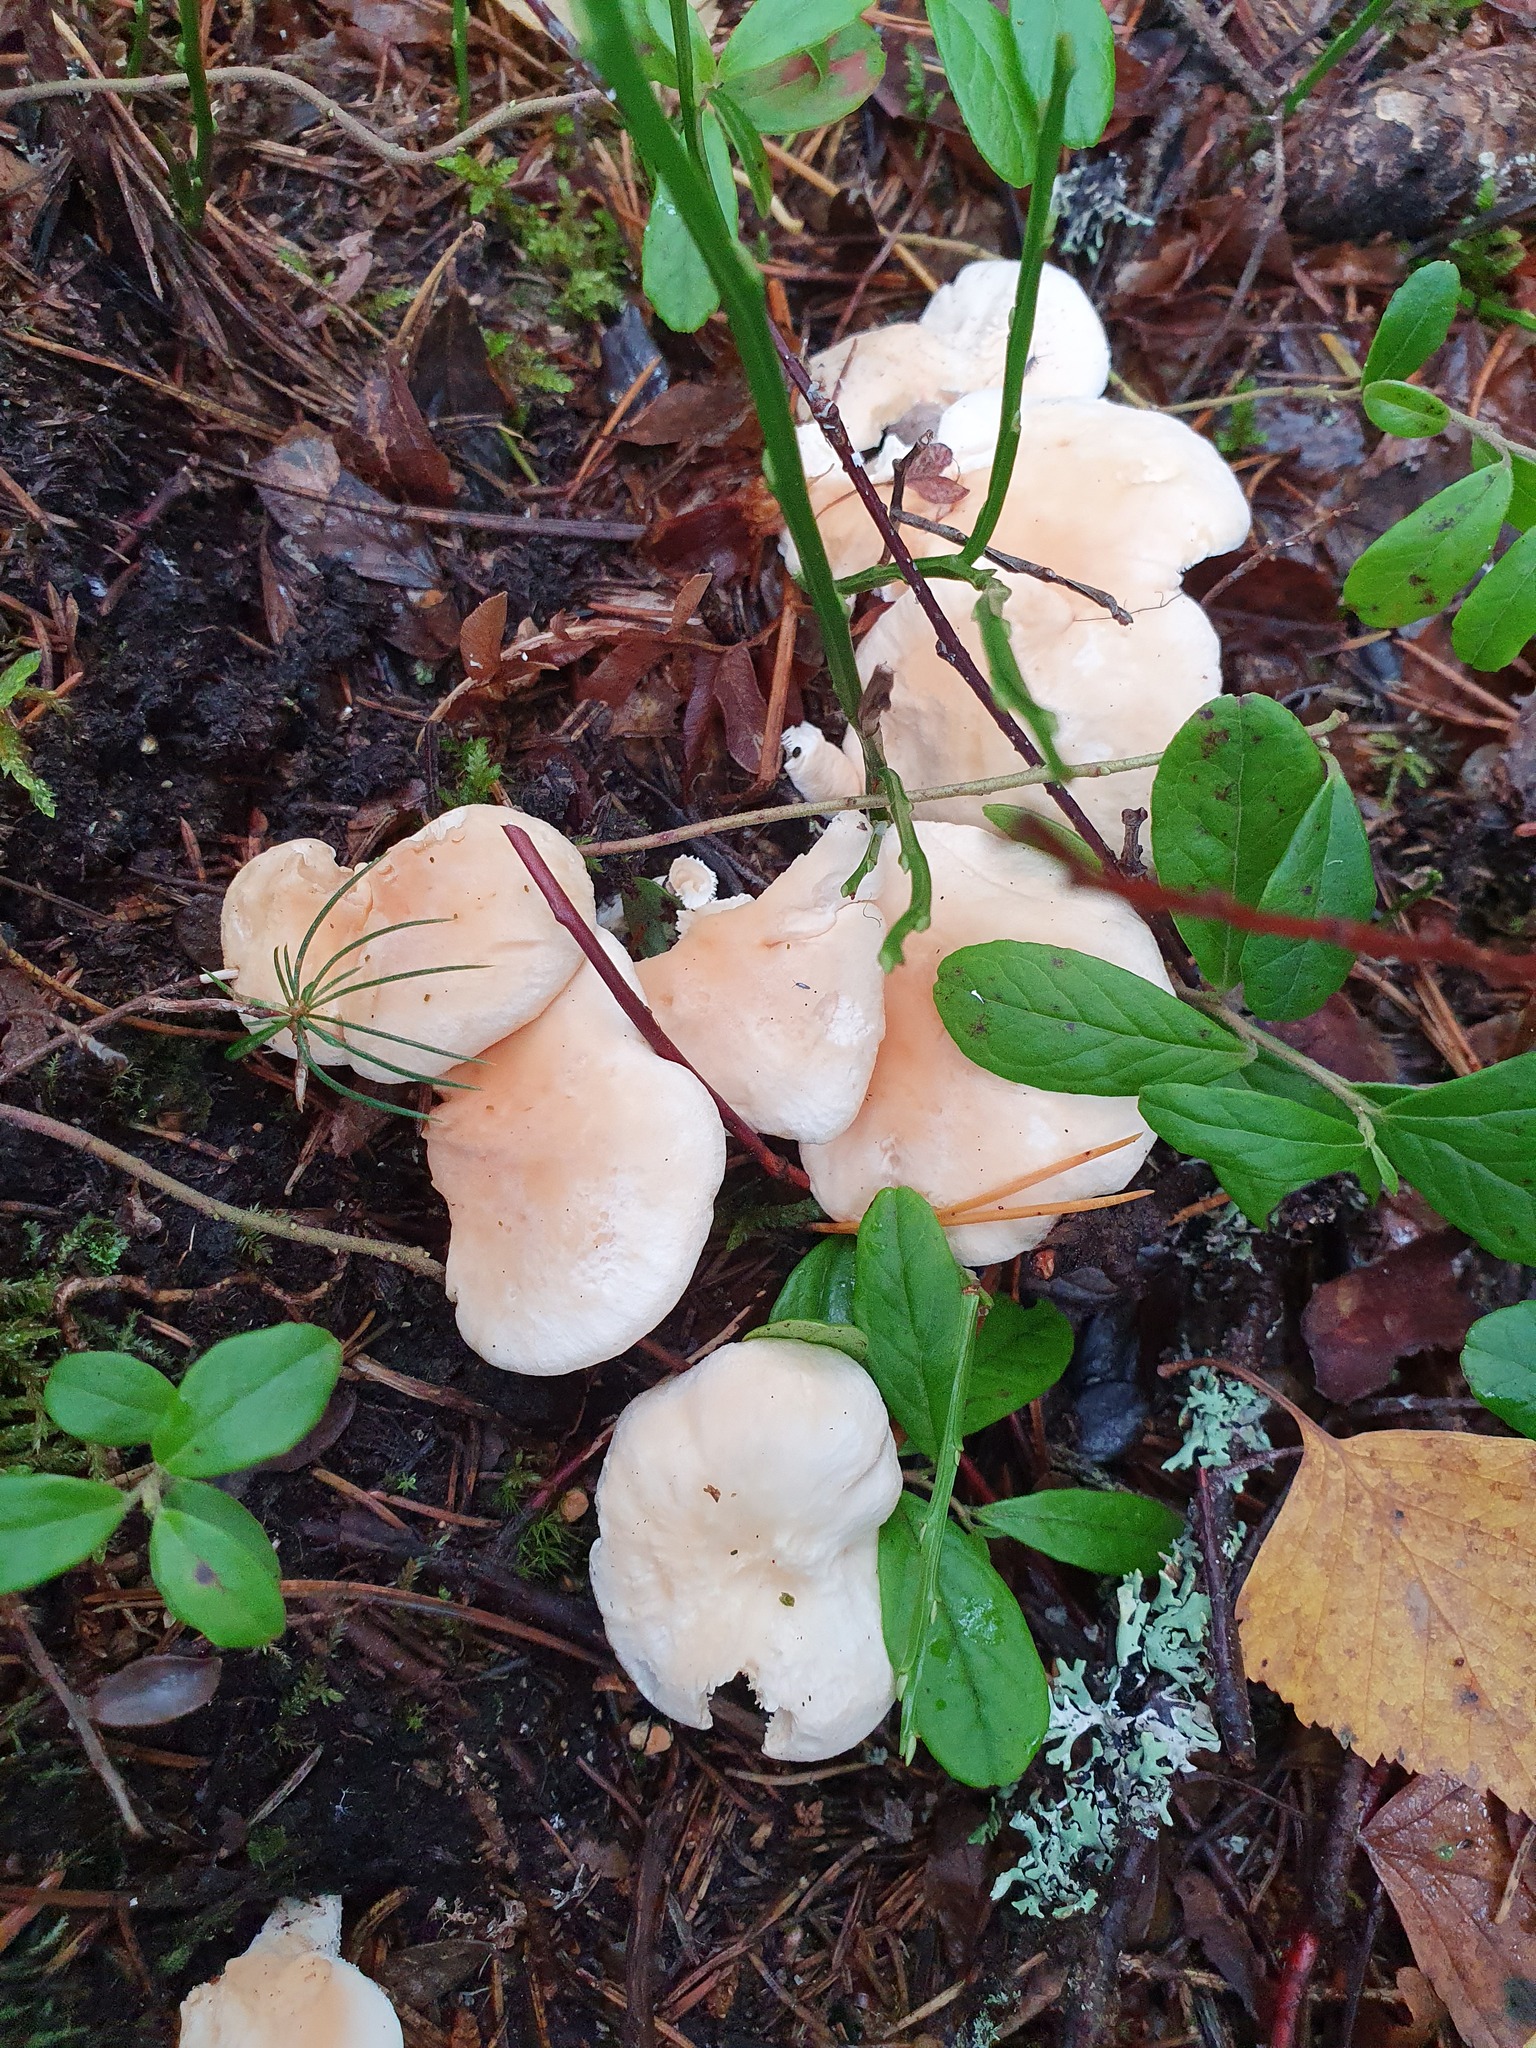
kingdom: Fungi
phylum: Basidiomycota
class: Agaricomycetes
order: Cantharellales
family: Hydnaceae
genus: Hydnum
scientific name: Hydnum repandum
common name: Wood hedgehog
